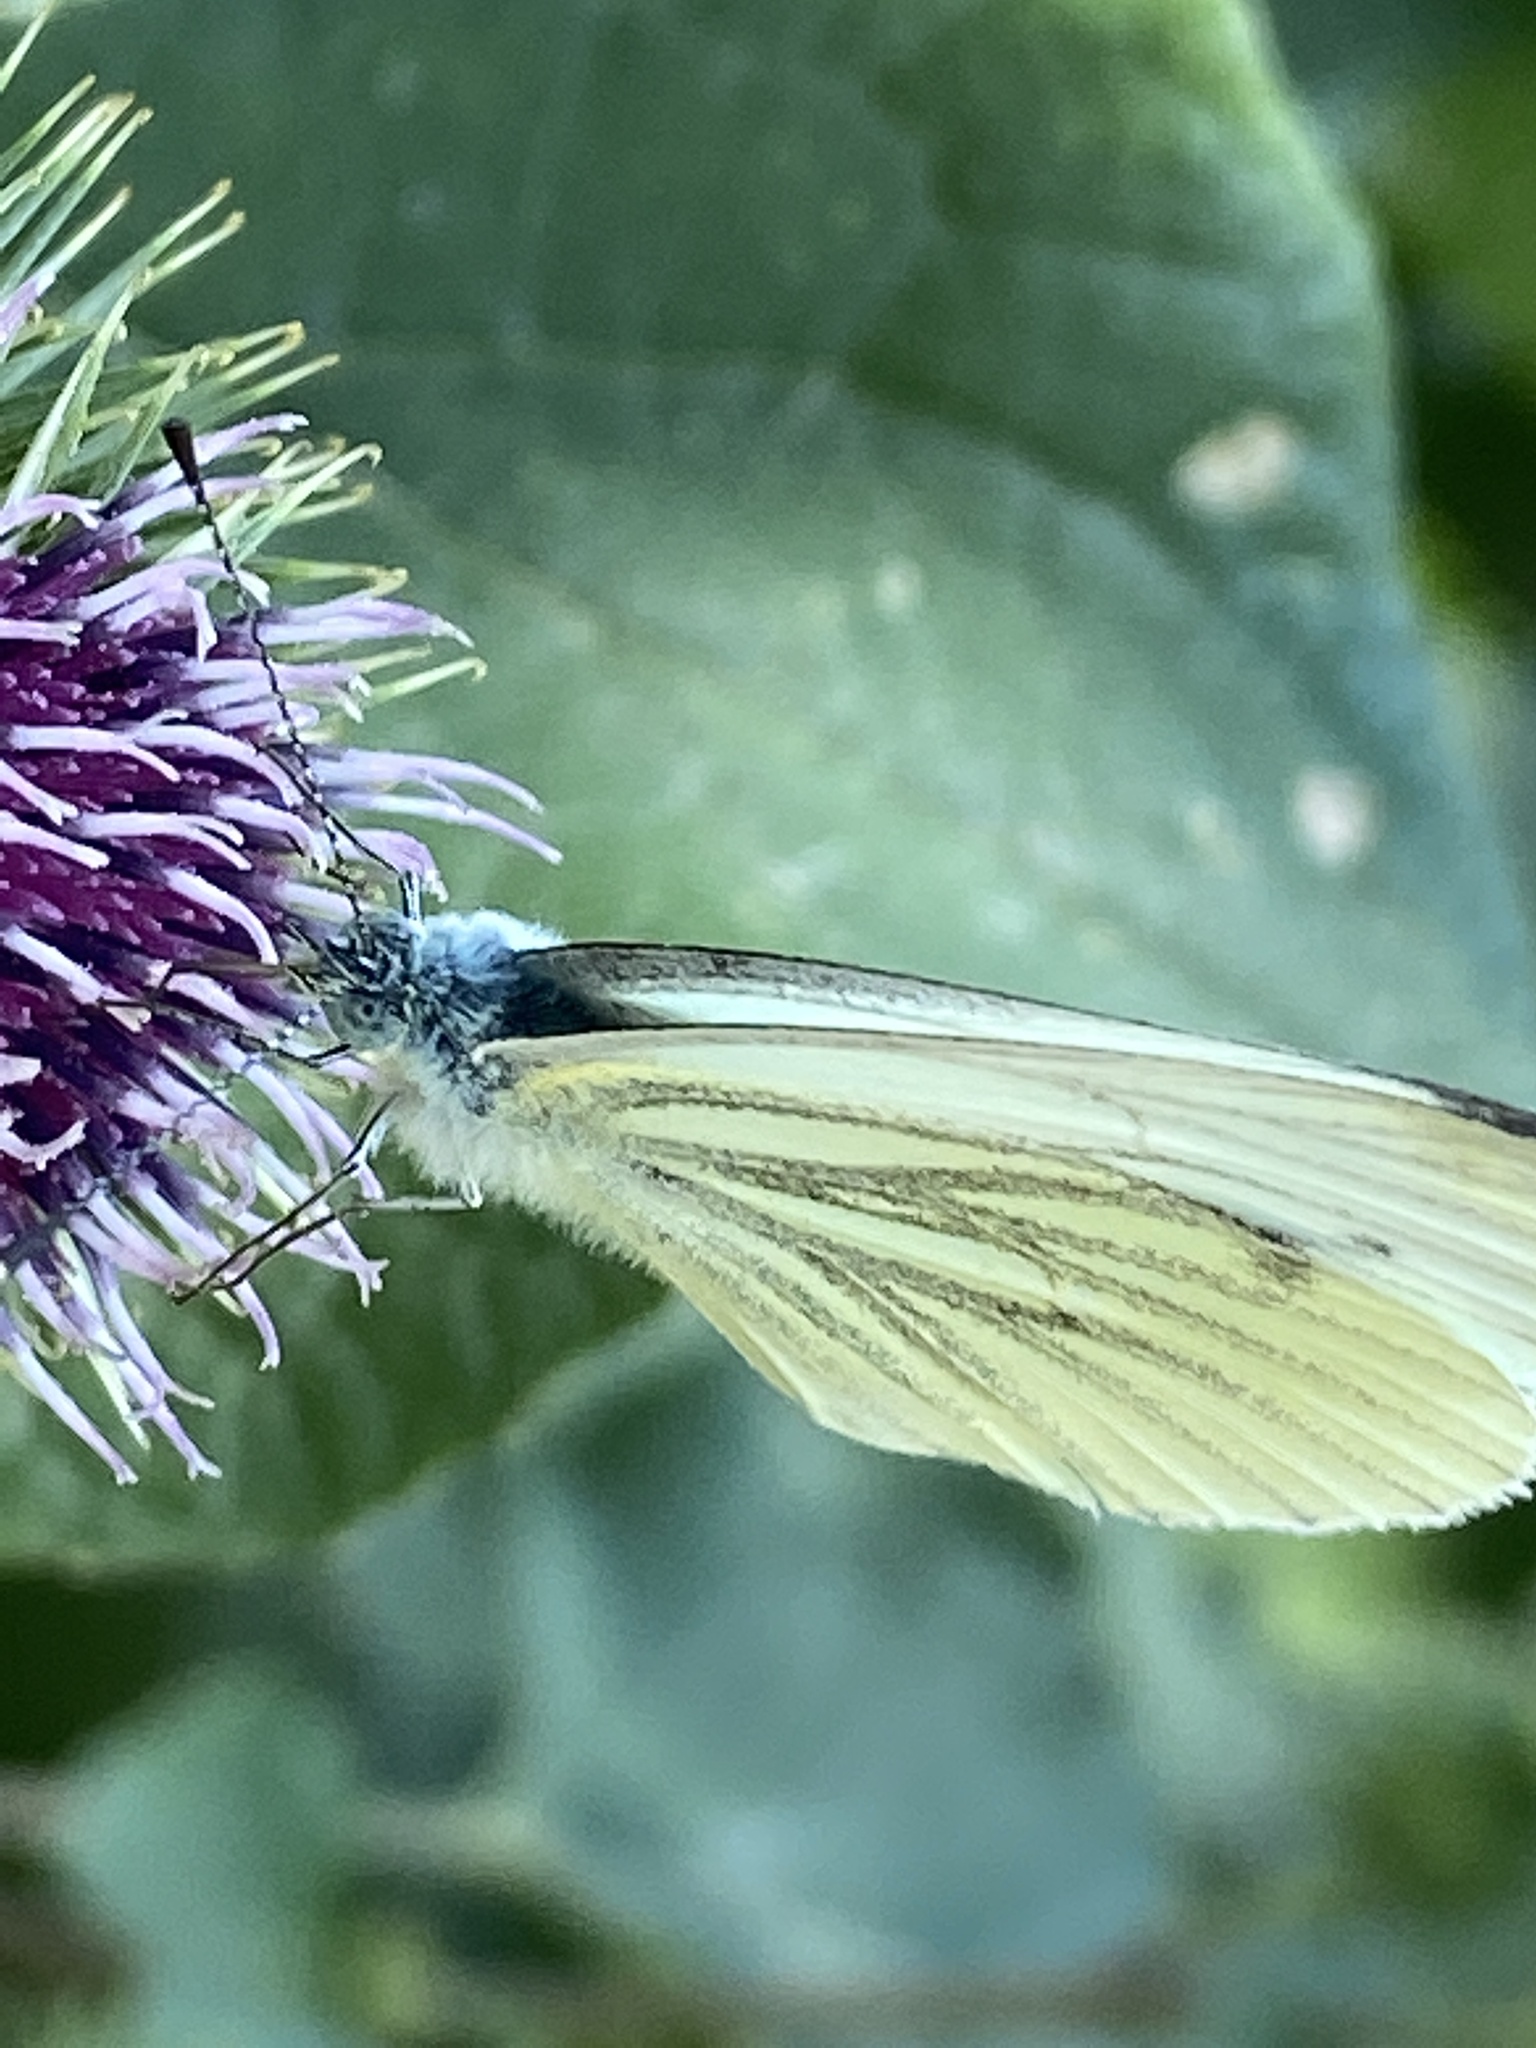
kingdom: Animalia
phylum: Arthropoda
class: Insecta
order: Lepidoptera
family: Pieridae
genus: Pieris
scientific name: Pieris napi
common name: Green-veined white
